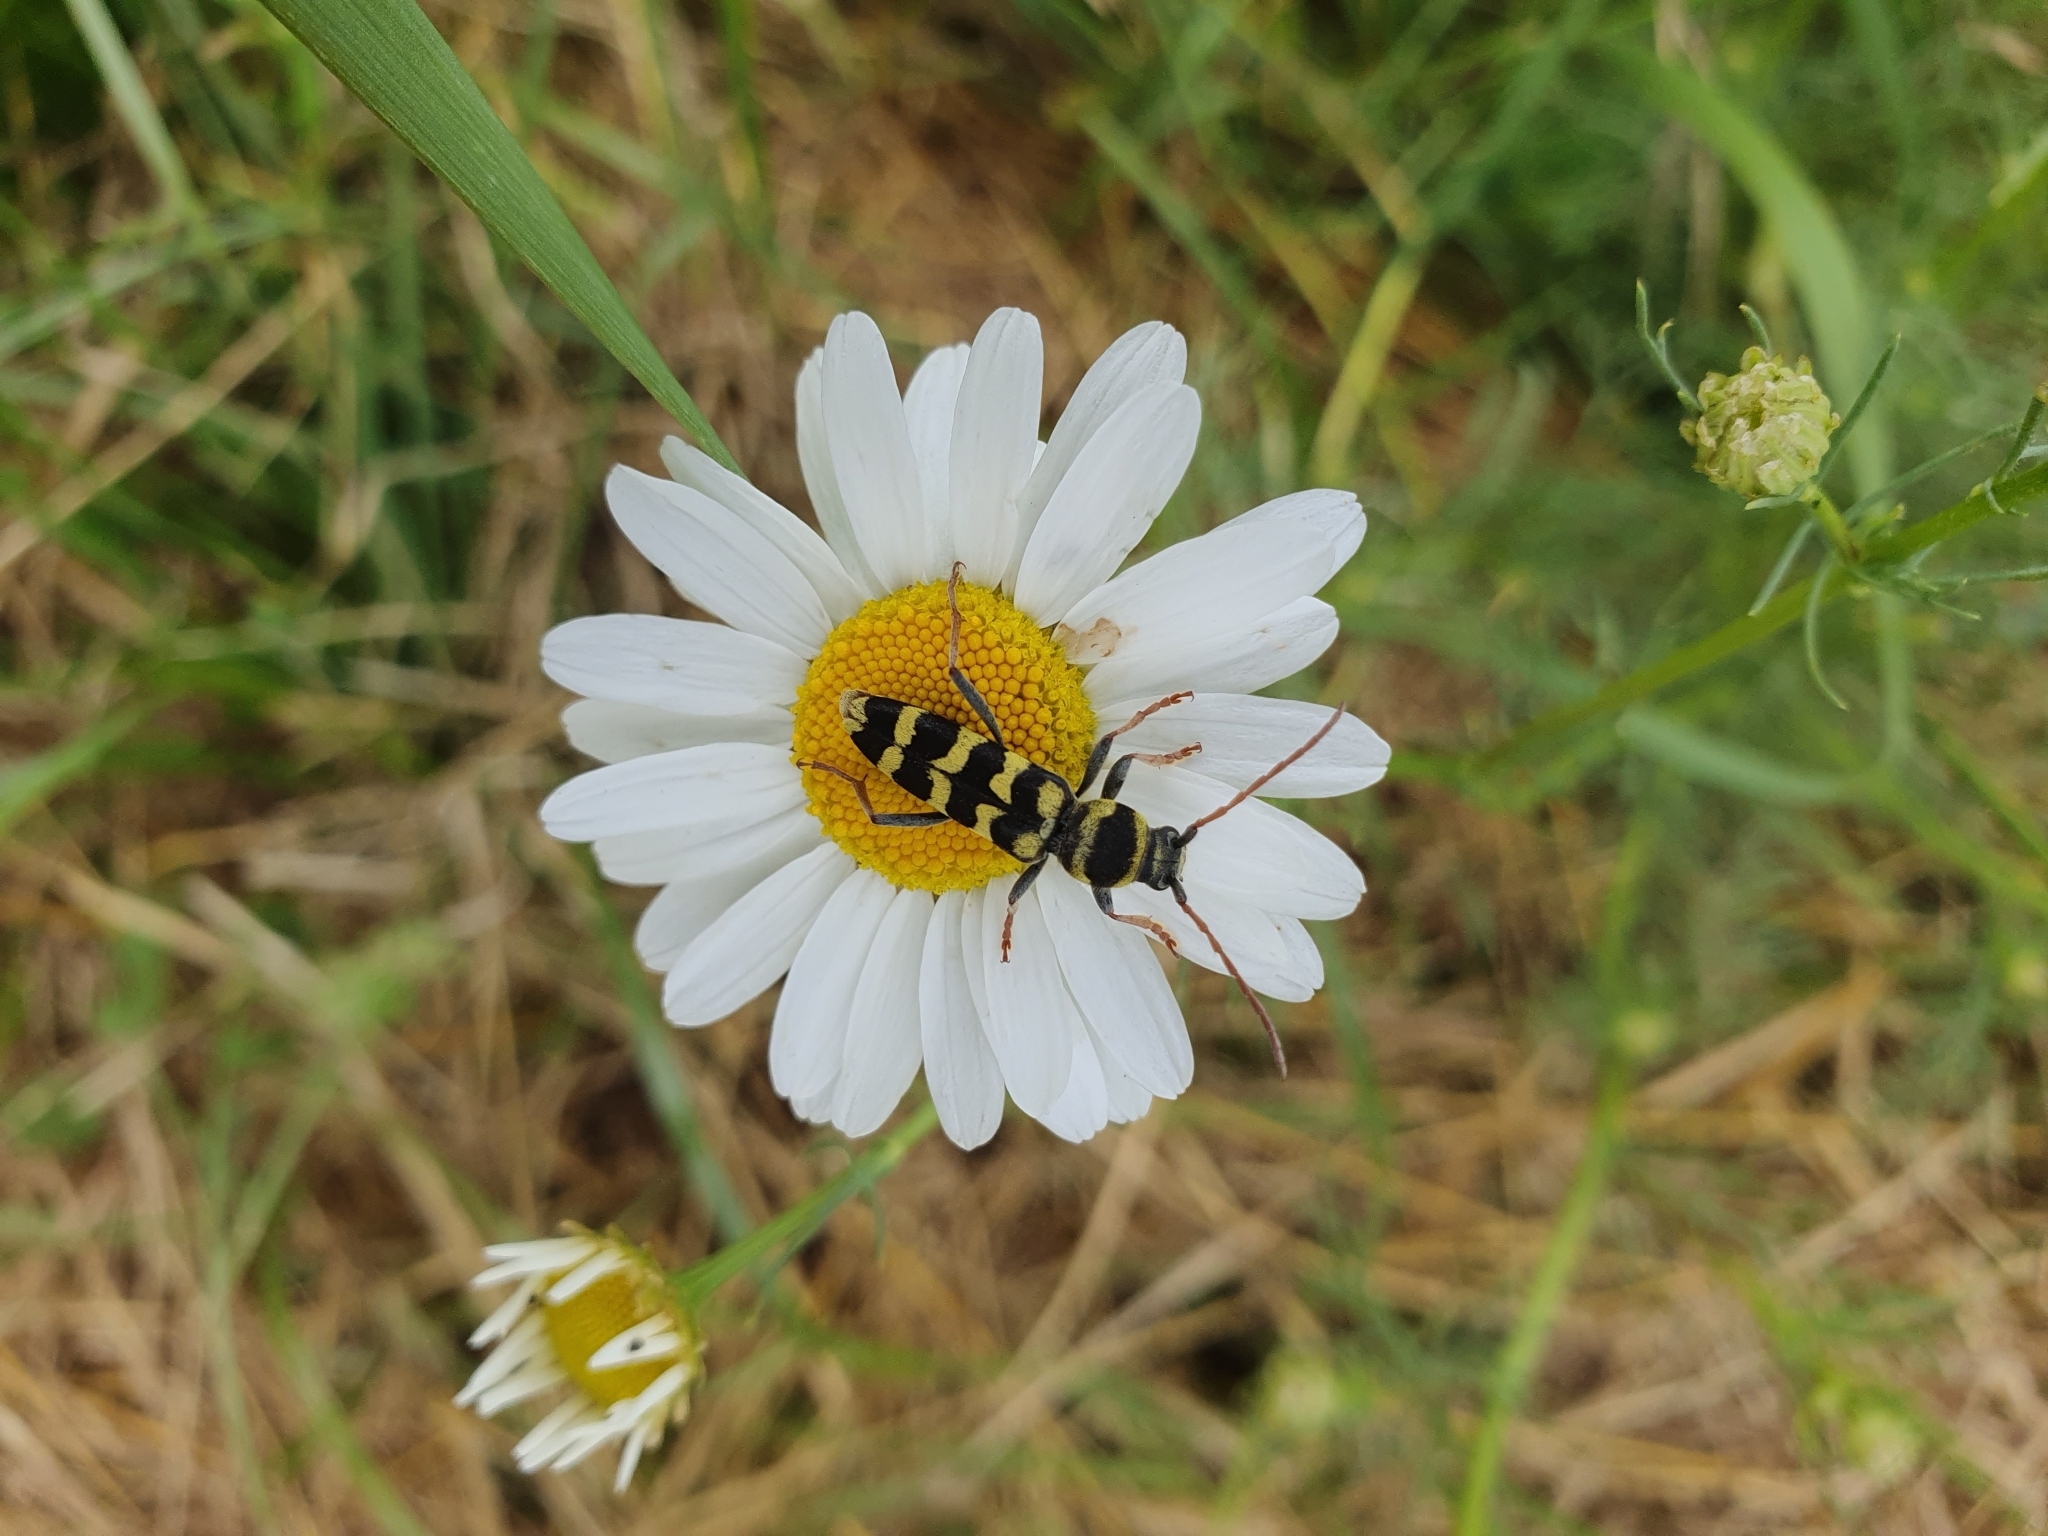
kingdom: Animalia
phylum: Arthropoda
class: Insecta
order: Coleoptera
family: Cerambycidae
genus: Plagionotus
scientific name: Plagionotus floralis
